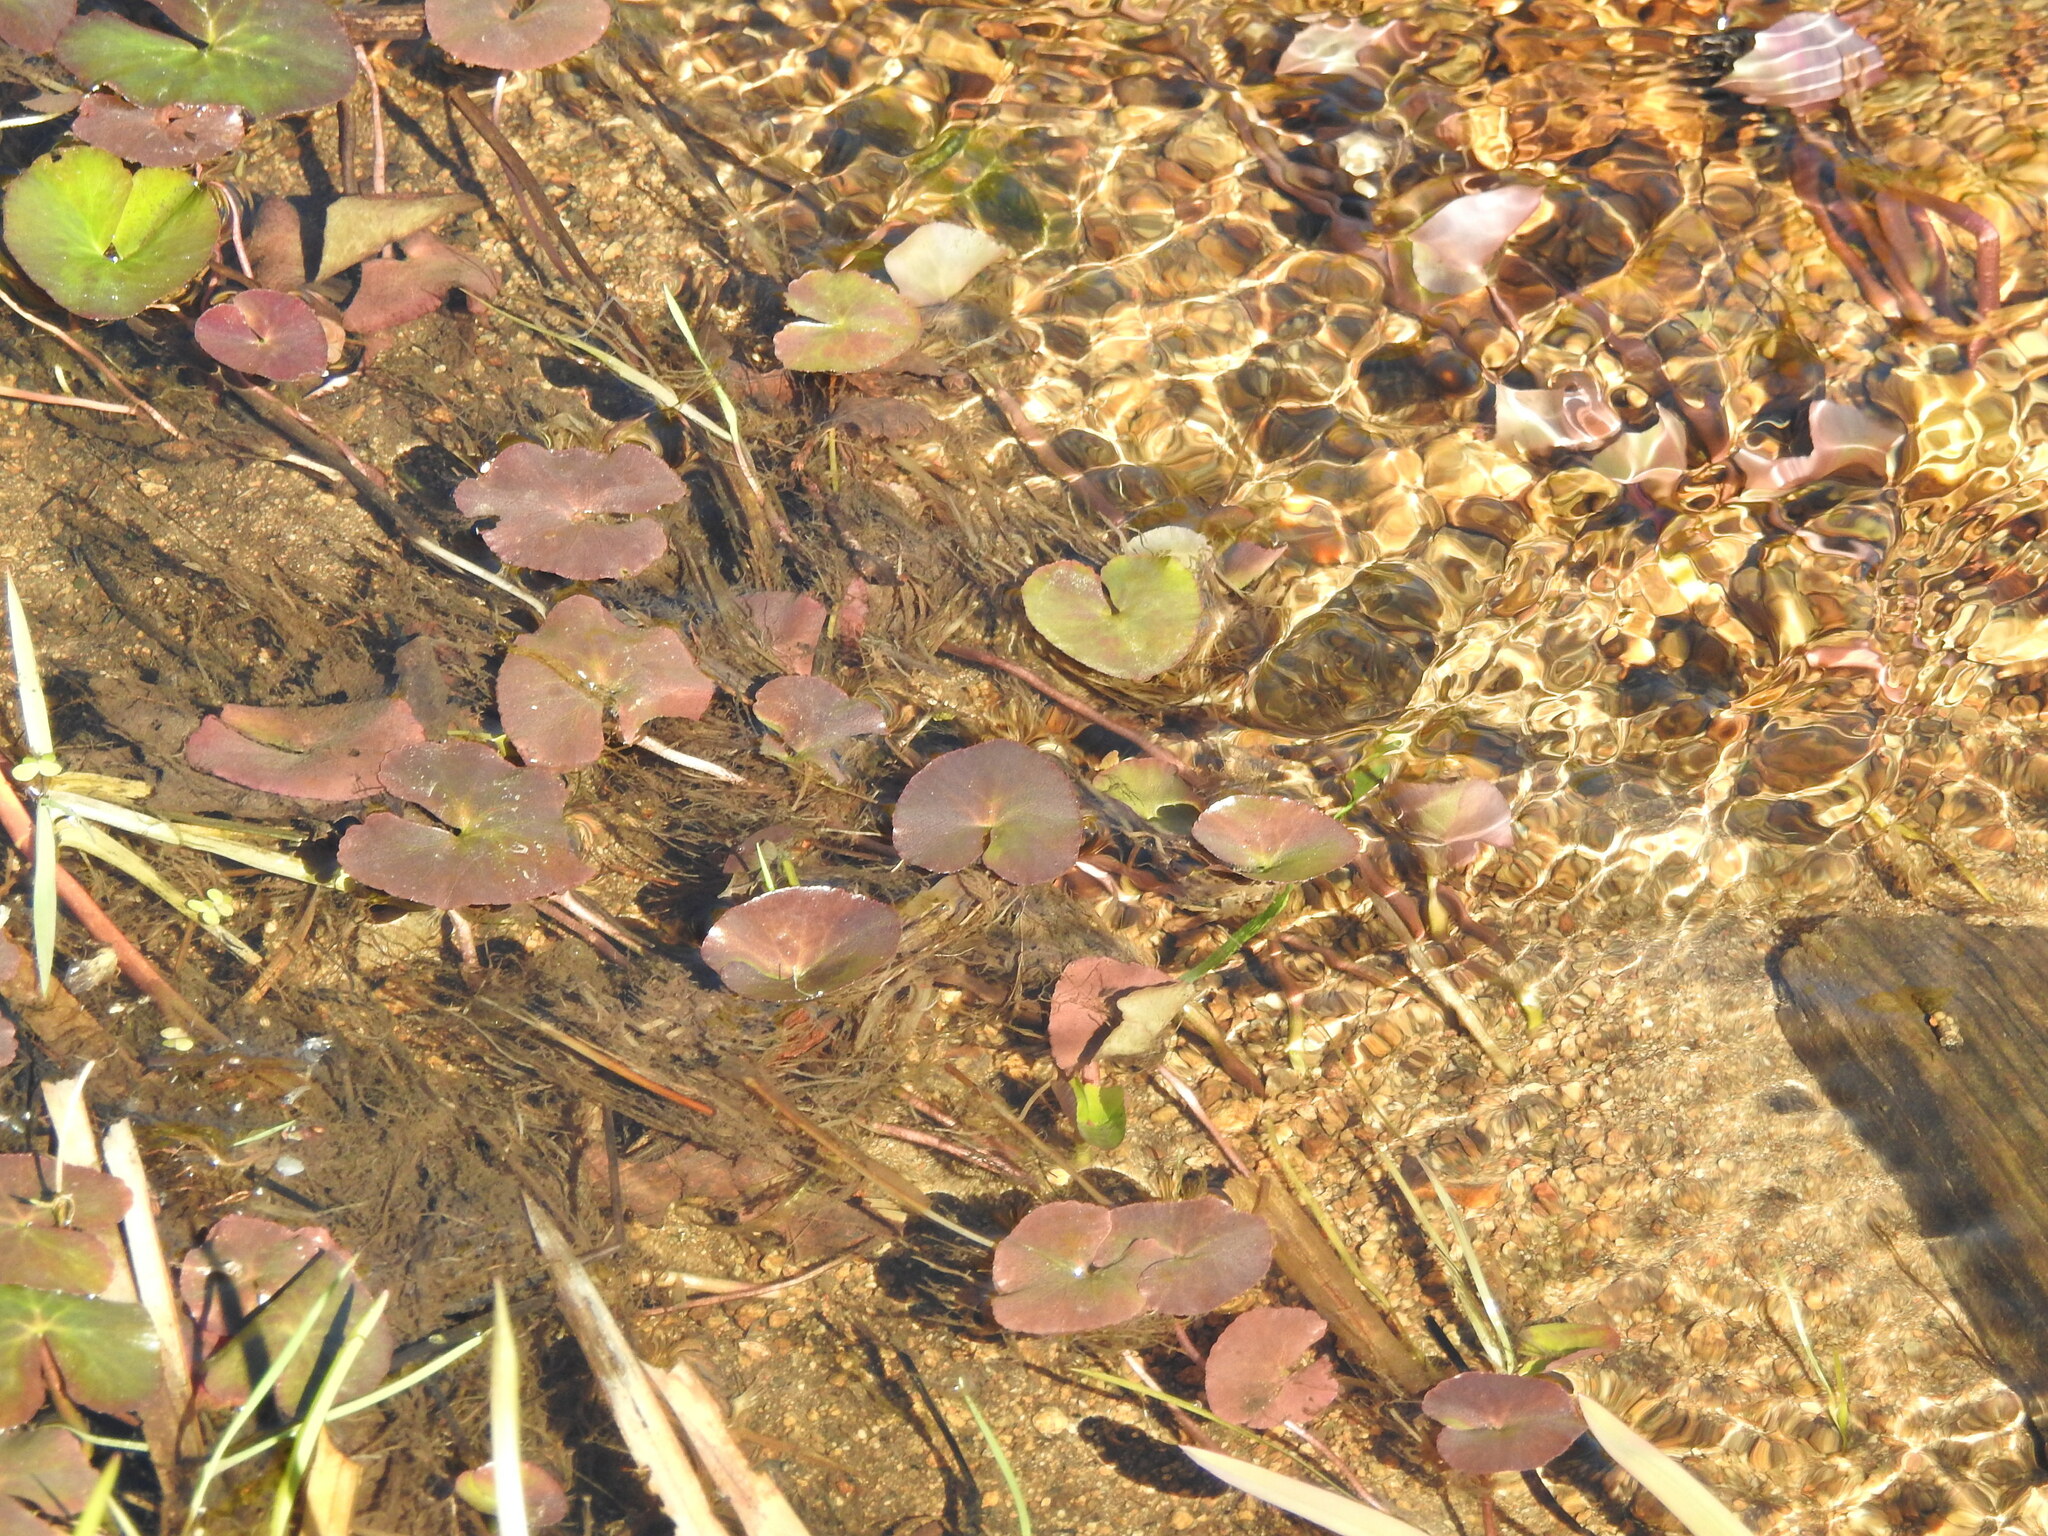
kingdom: Plantae
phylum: Tracheophyta
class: Magnoliopsida
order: Ranunculales
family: Ranunculaceae
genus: Caltha
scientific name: Caltha natans
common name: Floating marsh marigold
